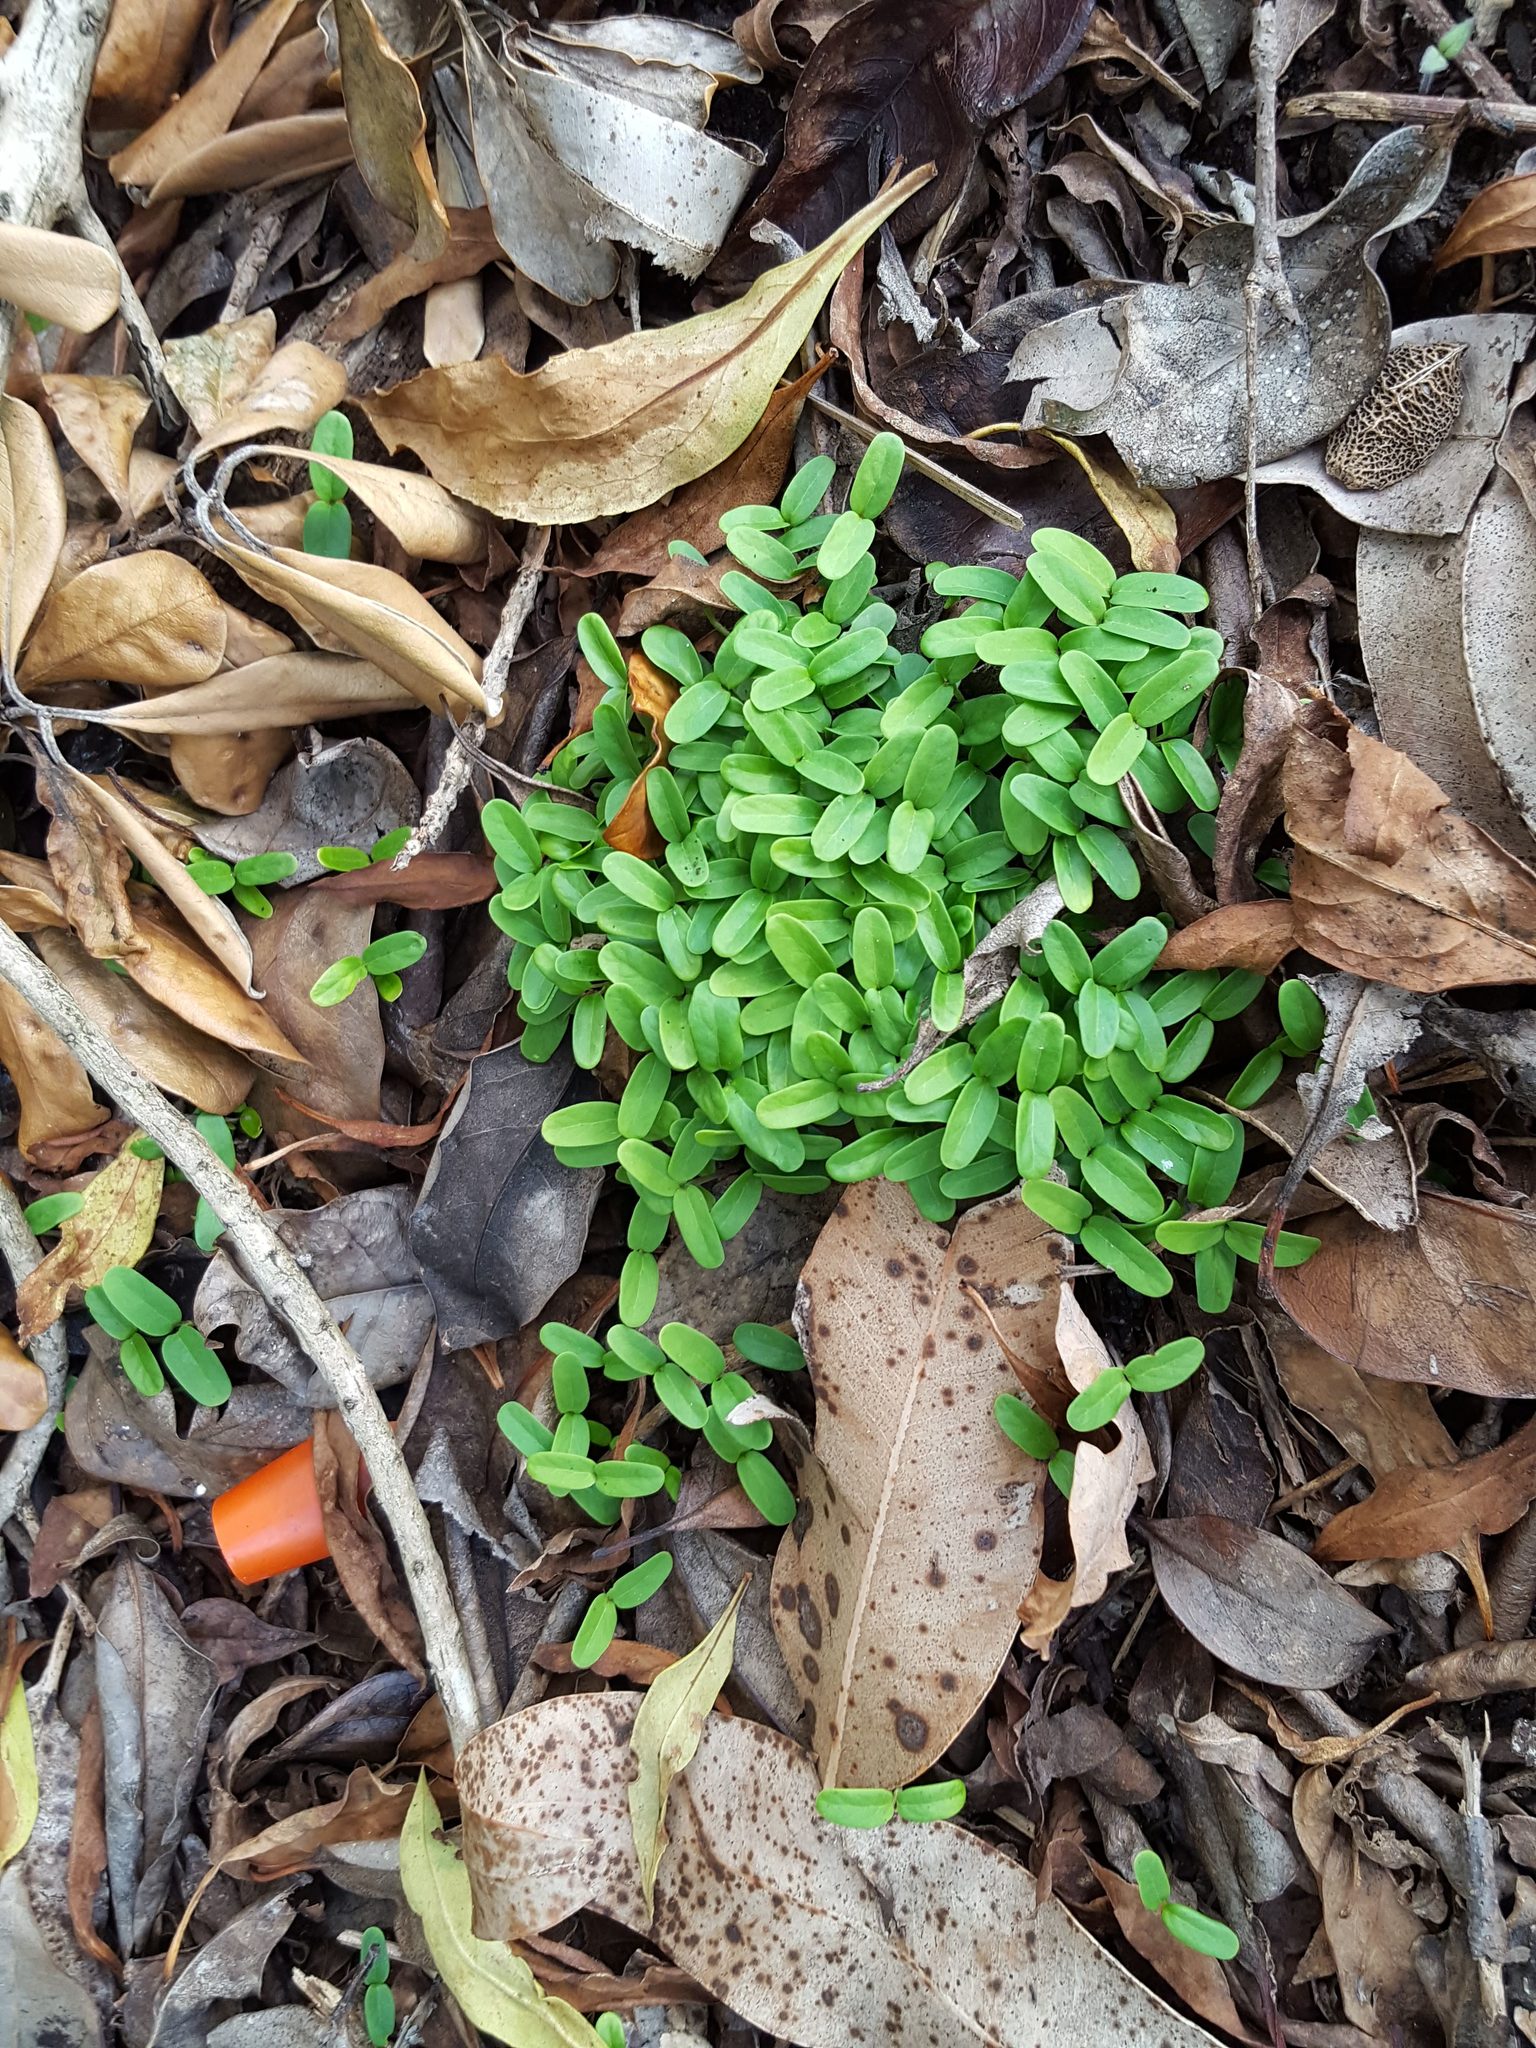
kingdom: Plantae
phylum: Tracheophyta
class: Magnoliopsida
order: Gentianales
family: Apocynaceae
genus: Araujia
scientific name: Araujia sericifera
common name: White bladderflower
